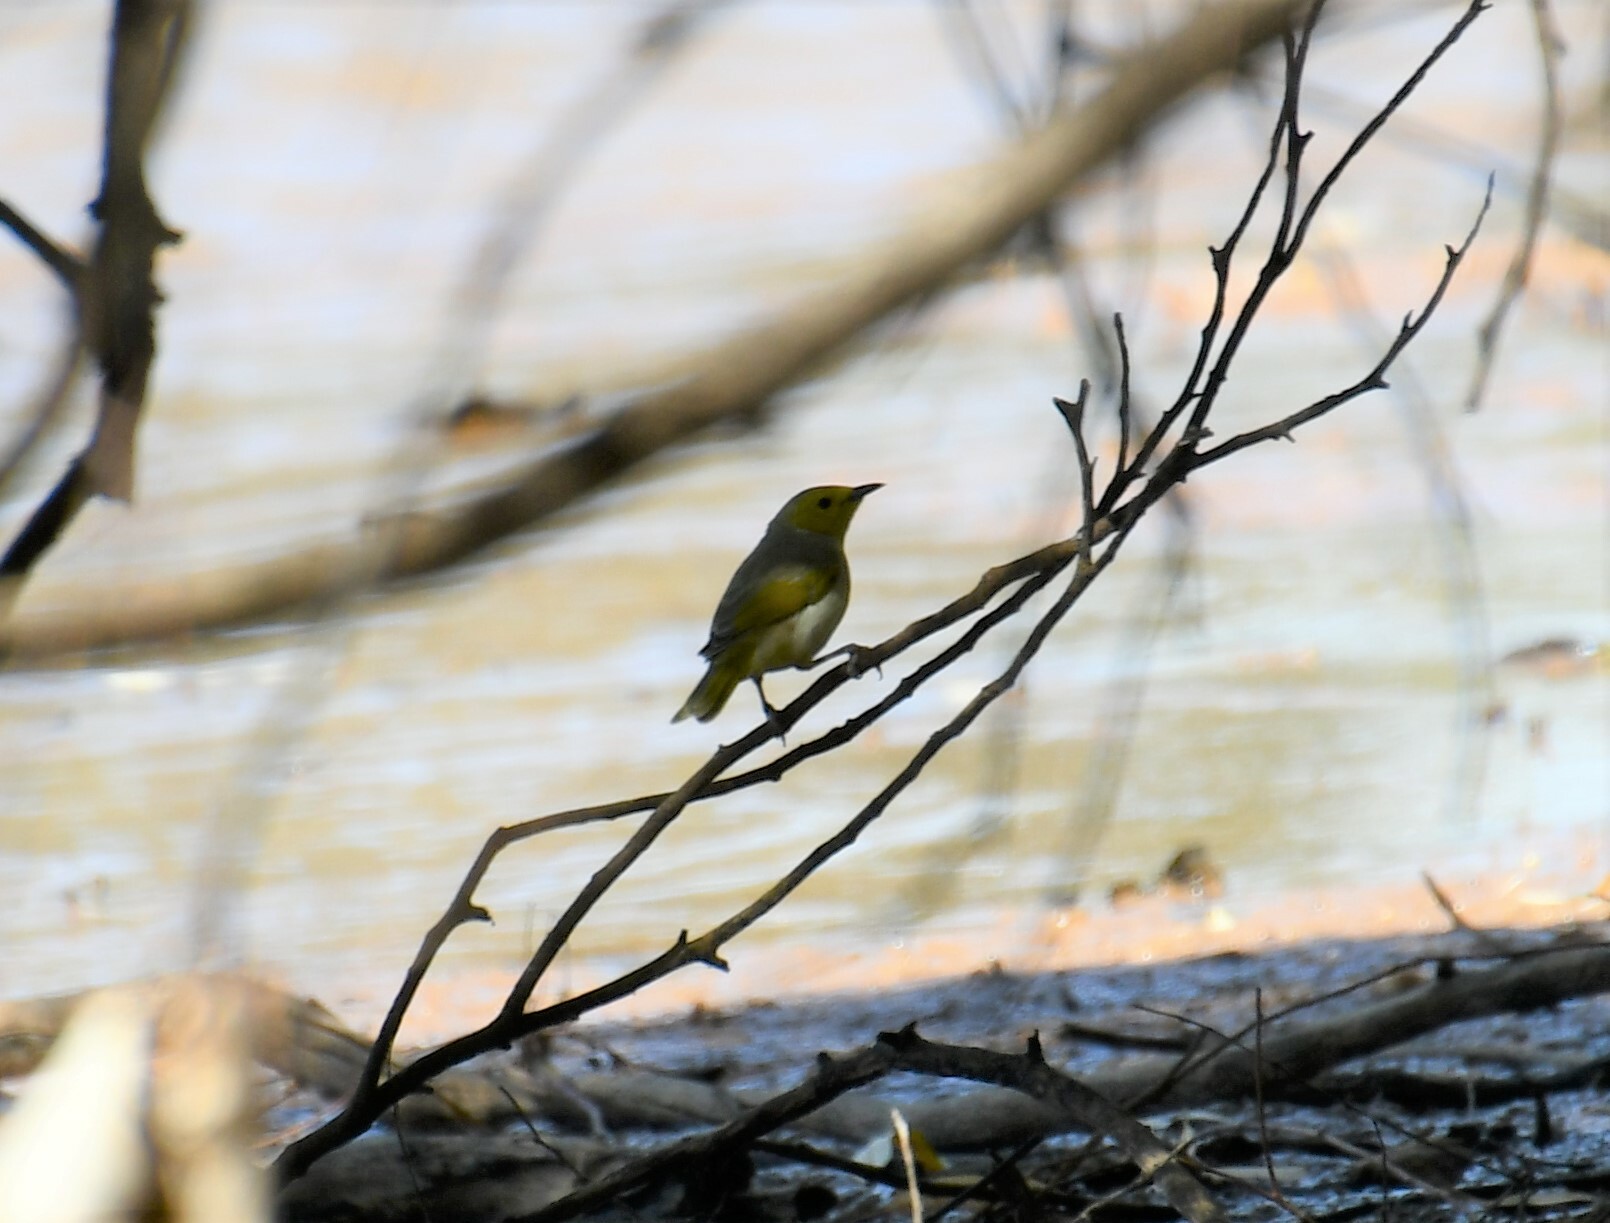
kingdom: Animalia
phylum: Chordata
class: Aves
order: Passeriformes
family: Meliphagidae
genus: Ptilotula
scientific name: Ptilotula penicillata
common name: White-plumed honeyeater
